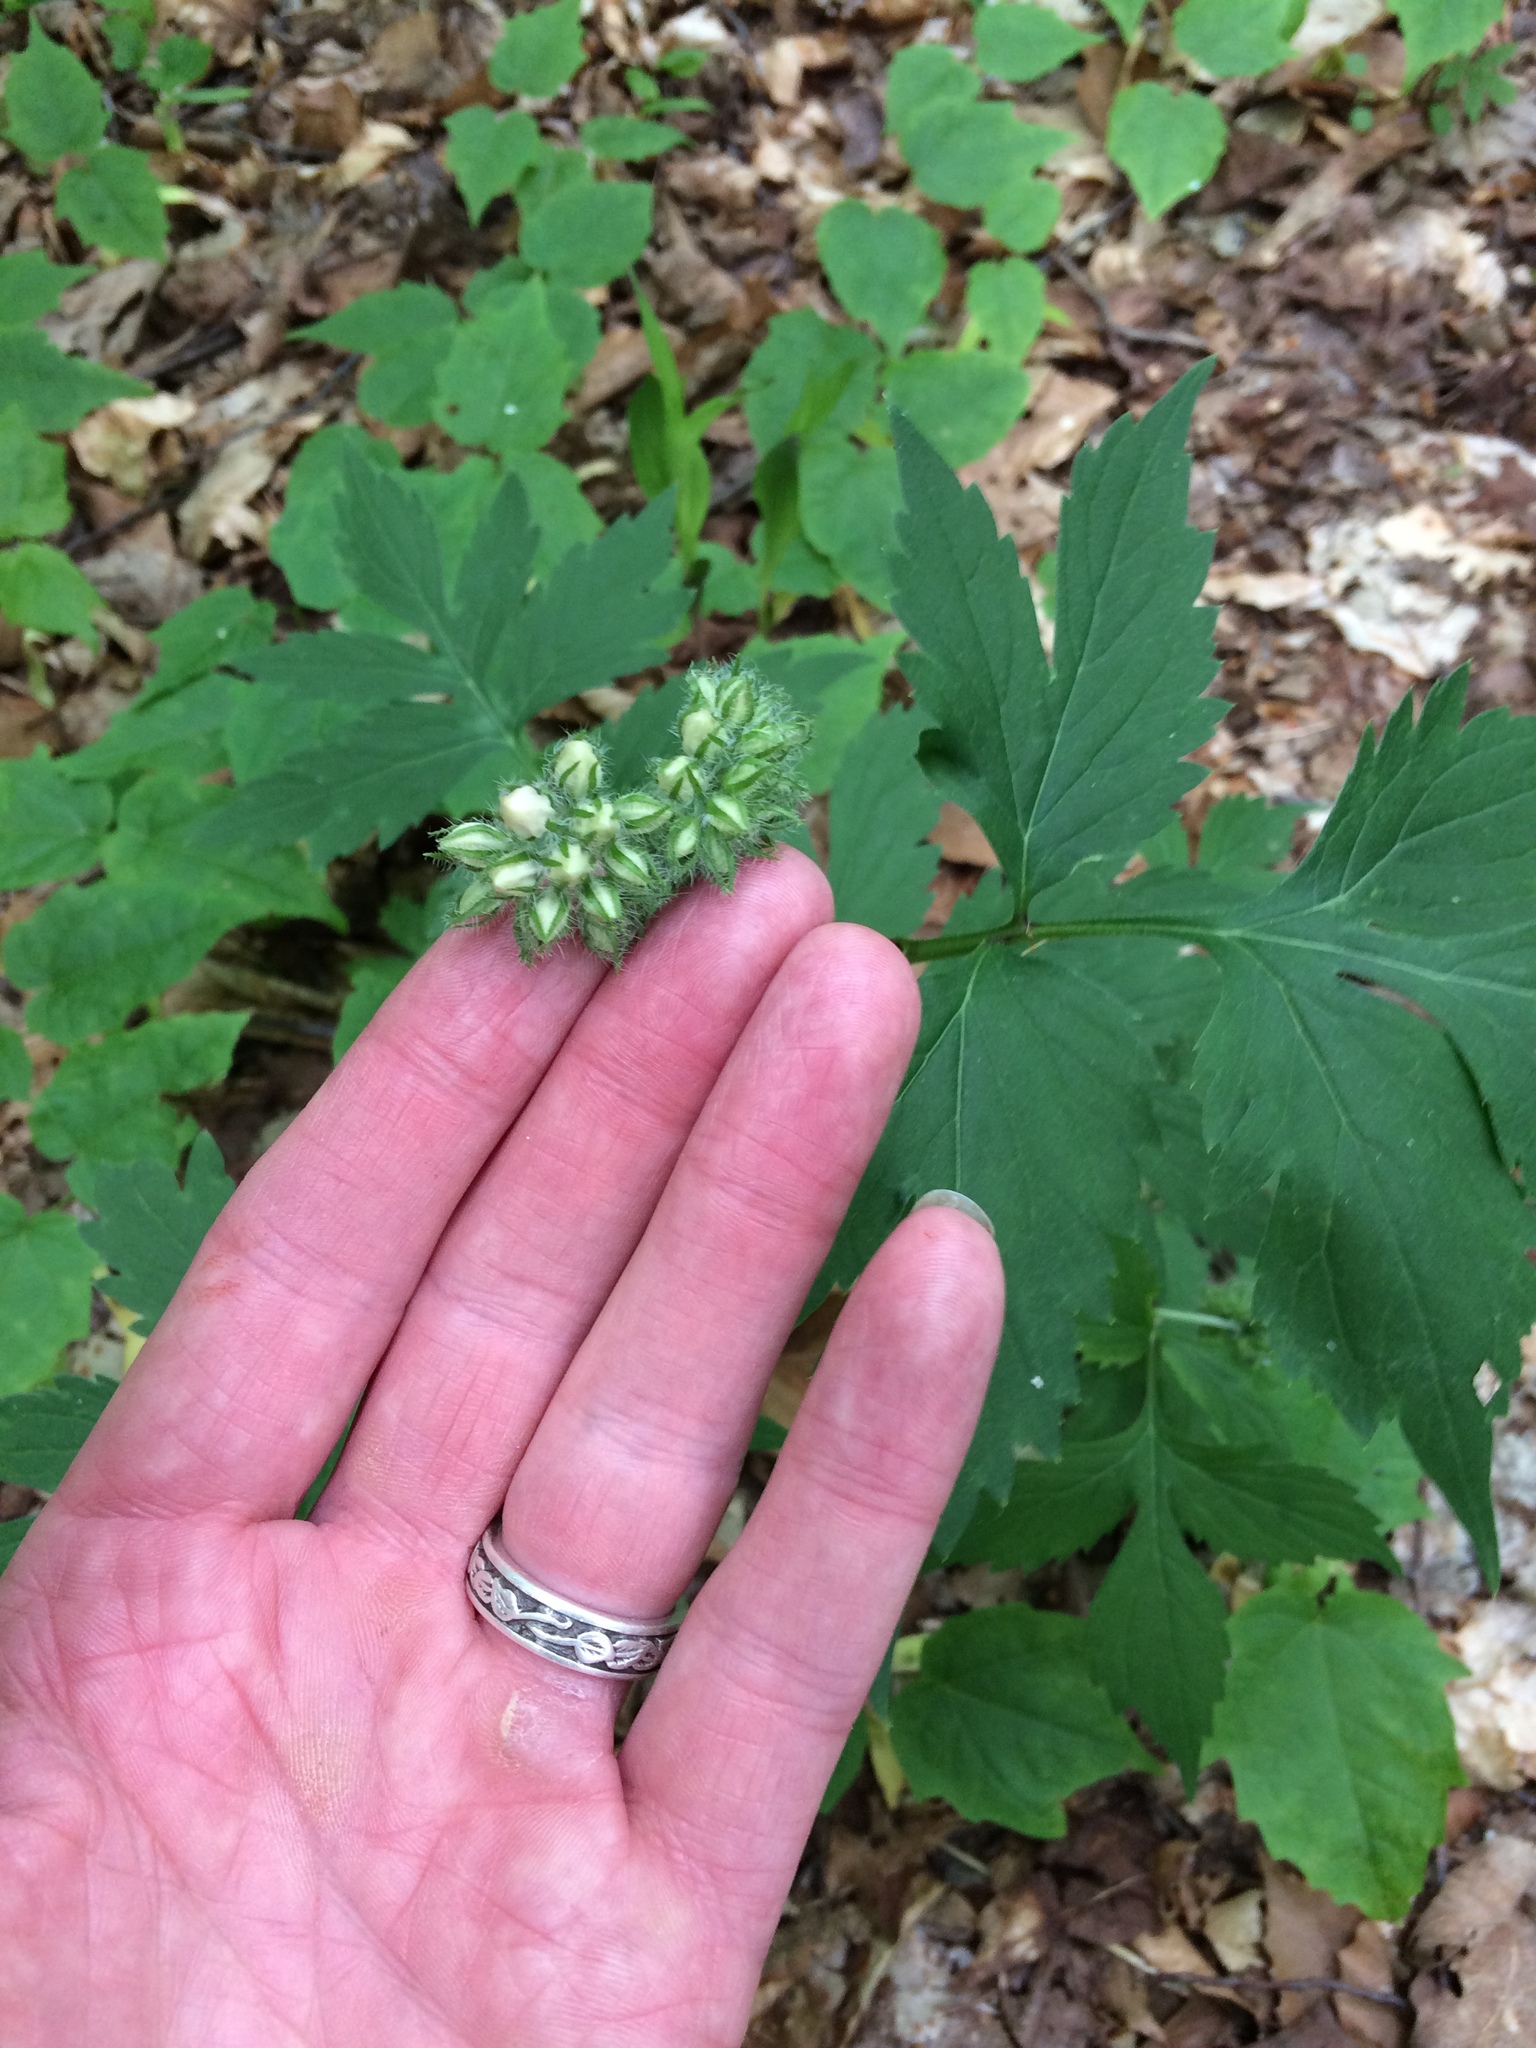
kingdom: Plantae
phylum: Tracheophyta
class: Magnoliopsida
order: Boraginales
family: Hydrophyllaceae
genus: Hydrophyllum
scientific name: Hydrophyllum virginianum
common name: Virginia waterleaf
